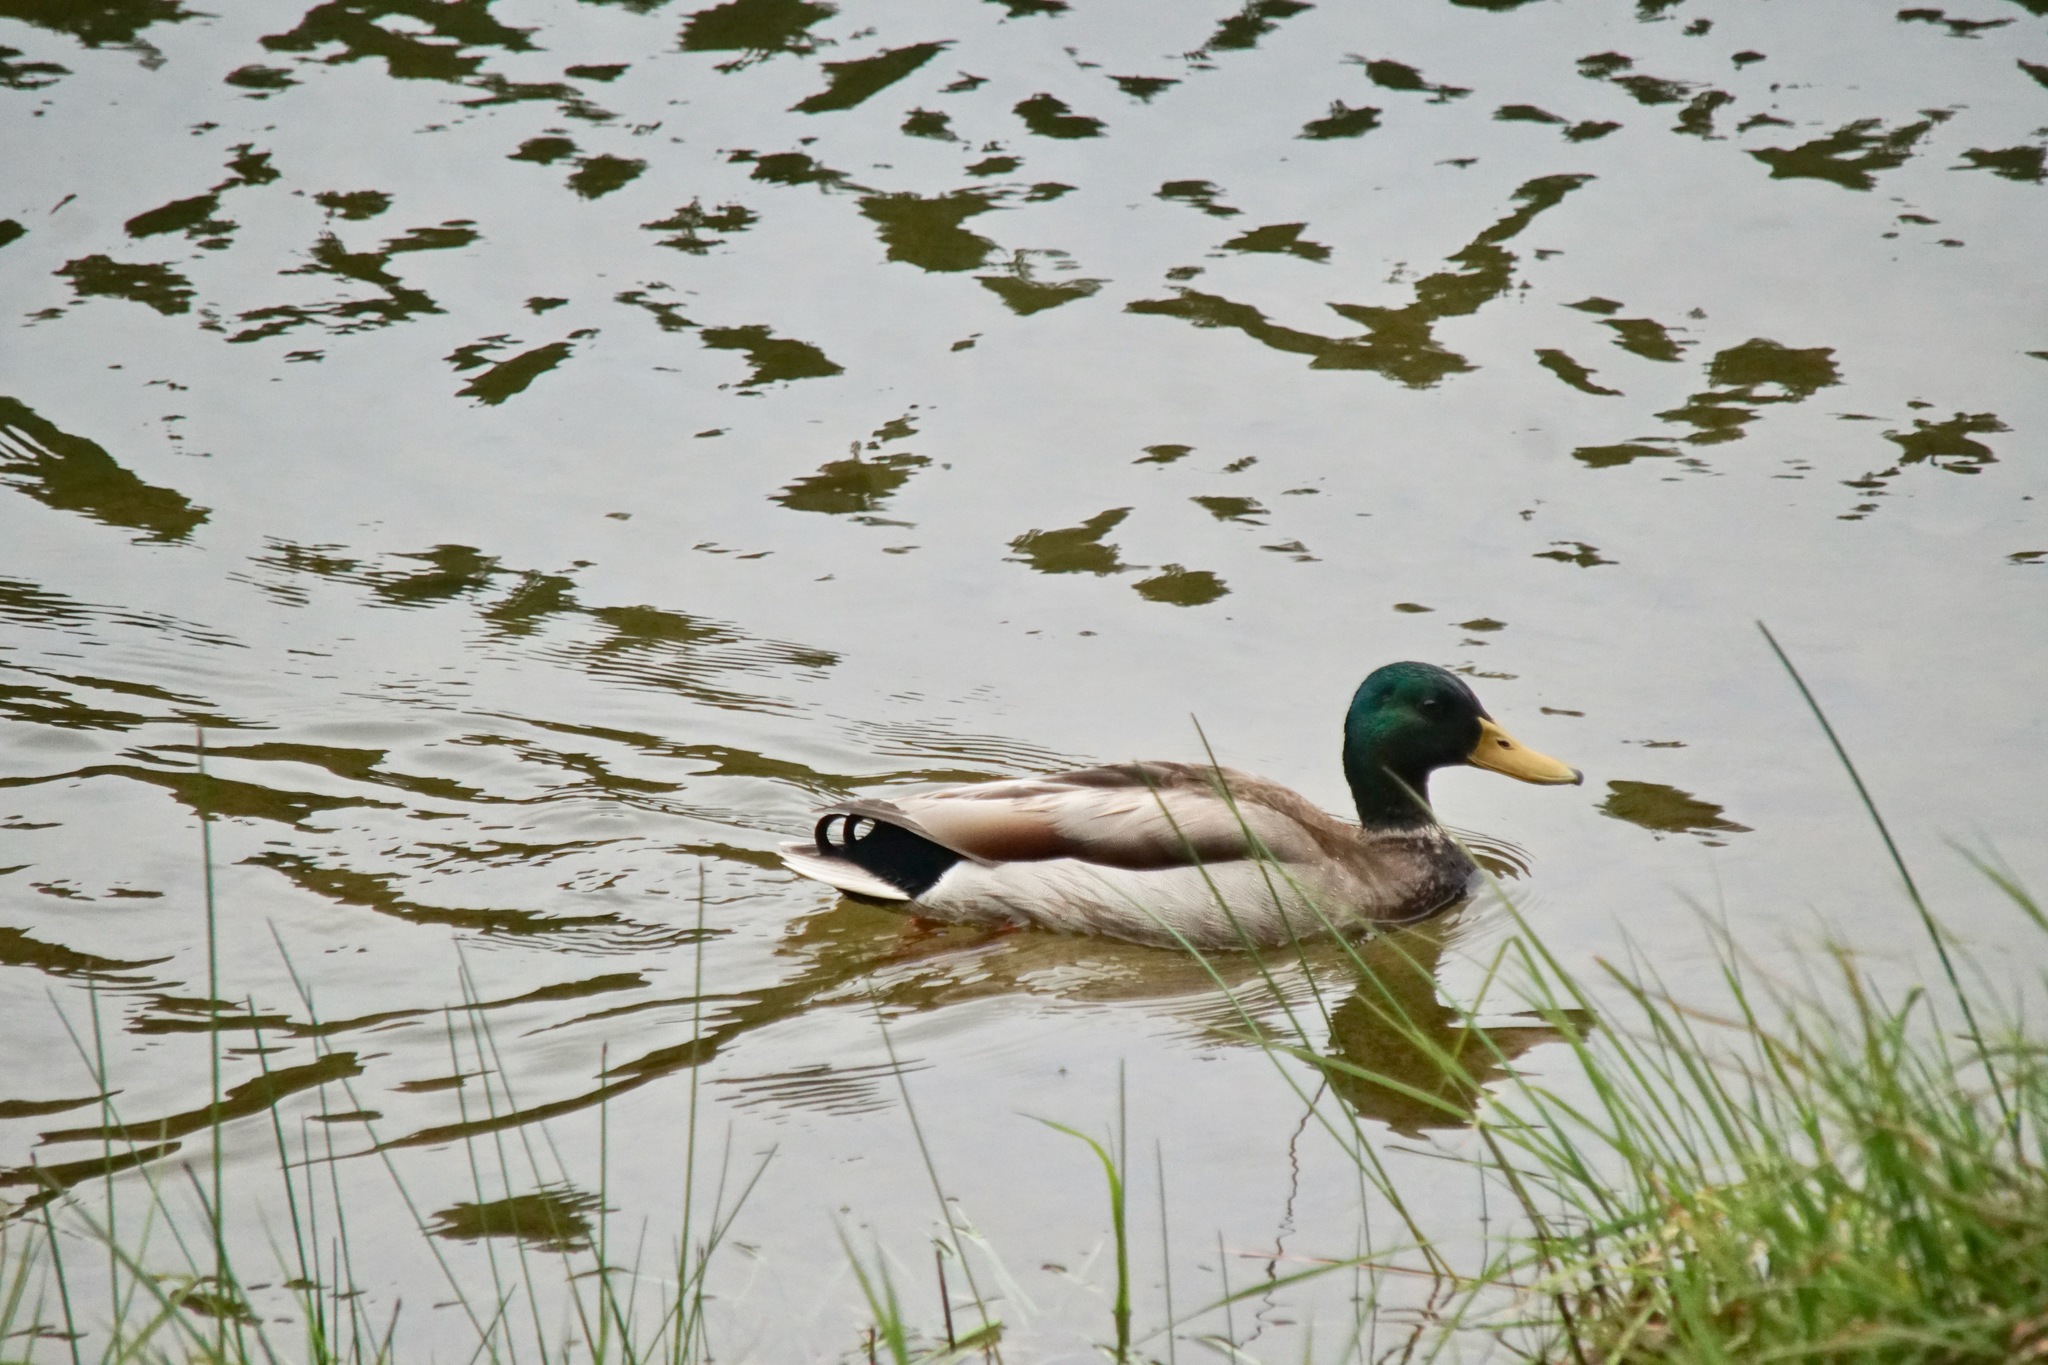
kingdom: Animalia
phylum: Chordata
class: Aves
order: Anseriformes
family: Anatidae
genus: Anas
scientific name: Anas platyrhynchos
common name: Mallard
